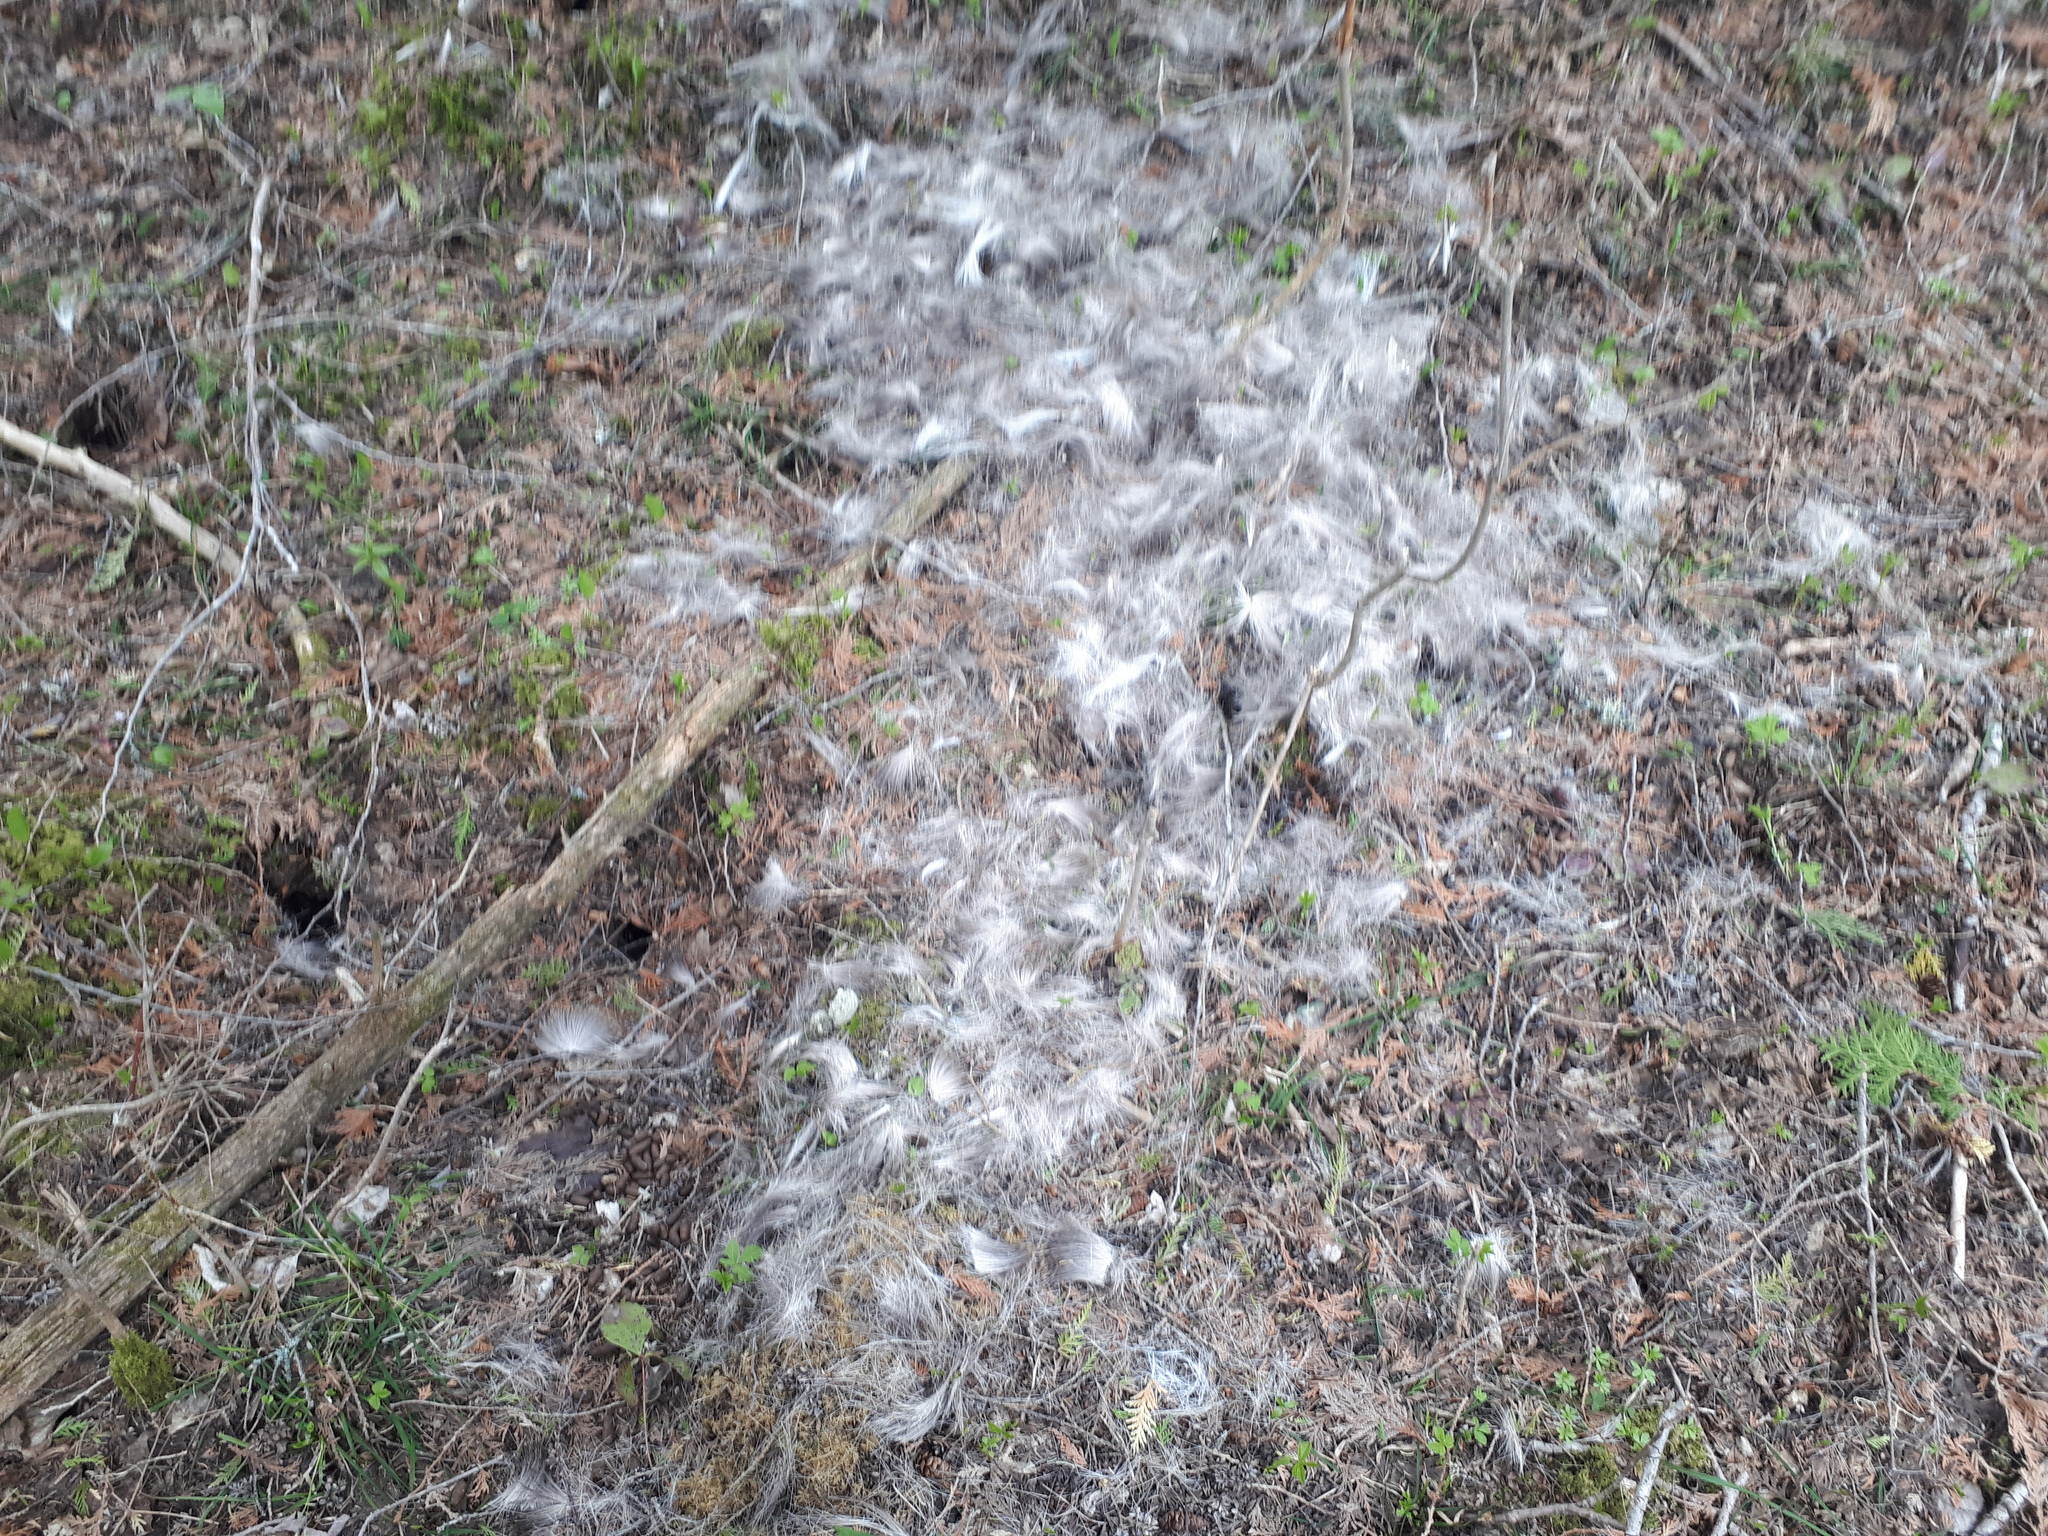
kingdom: Animalia
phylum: Chordata
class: Mammalia
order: Artiodactyla
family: Cervidae
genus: Odocoileus
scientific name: Odocoileus virginianus
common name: White-tailed deer
